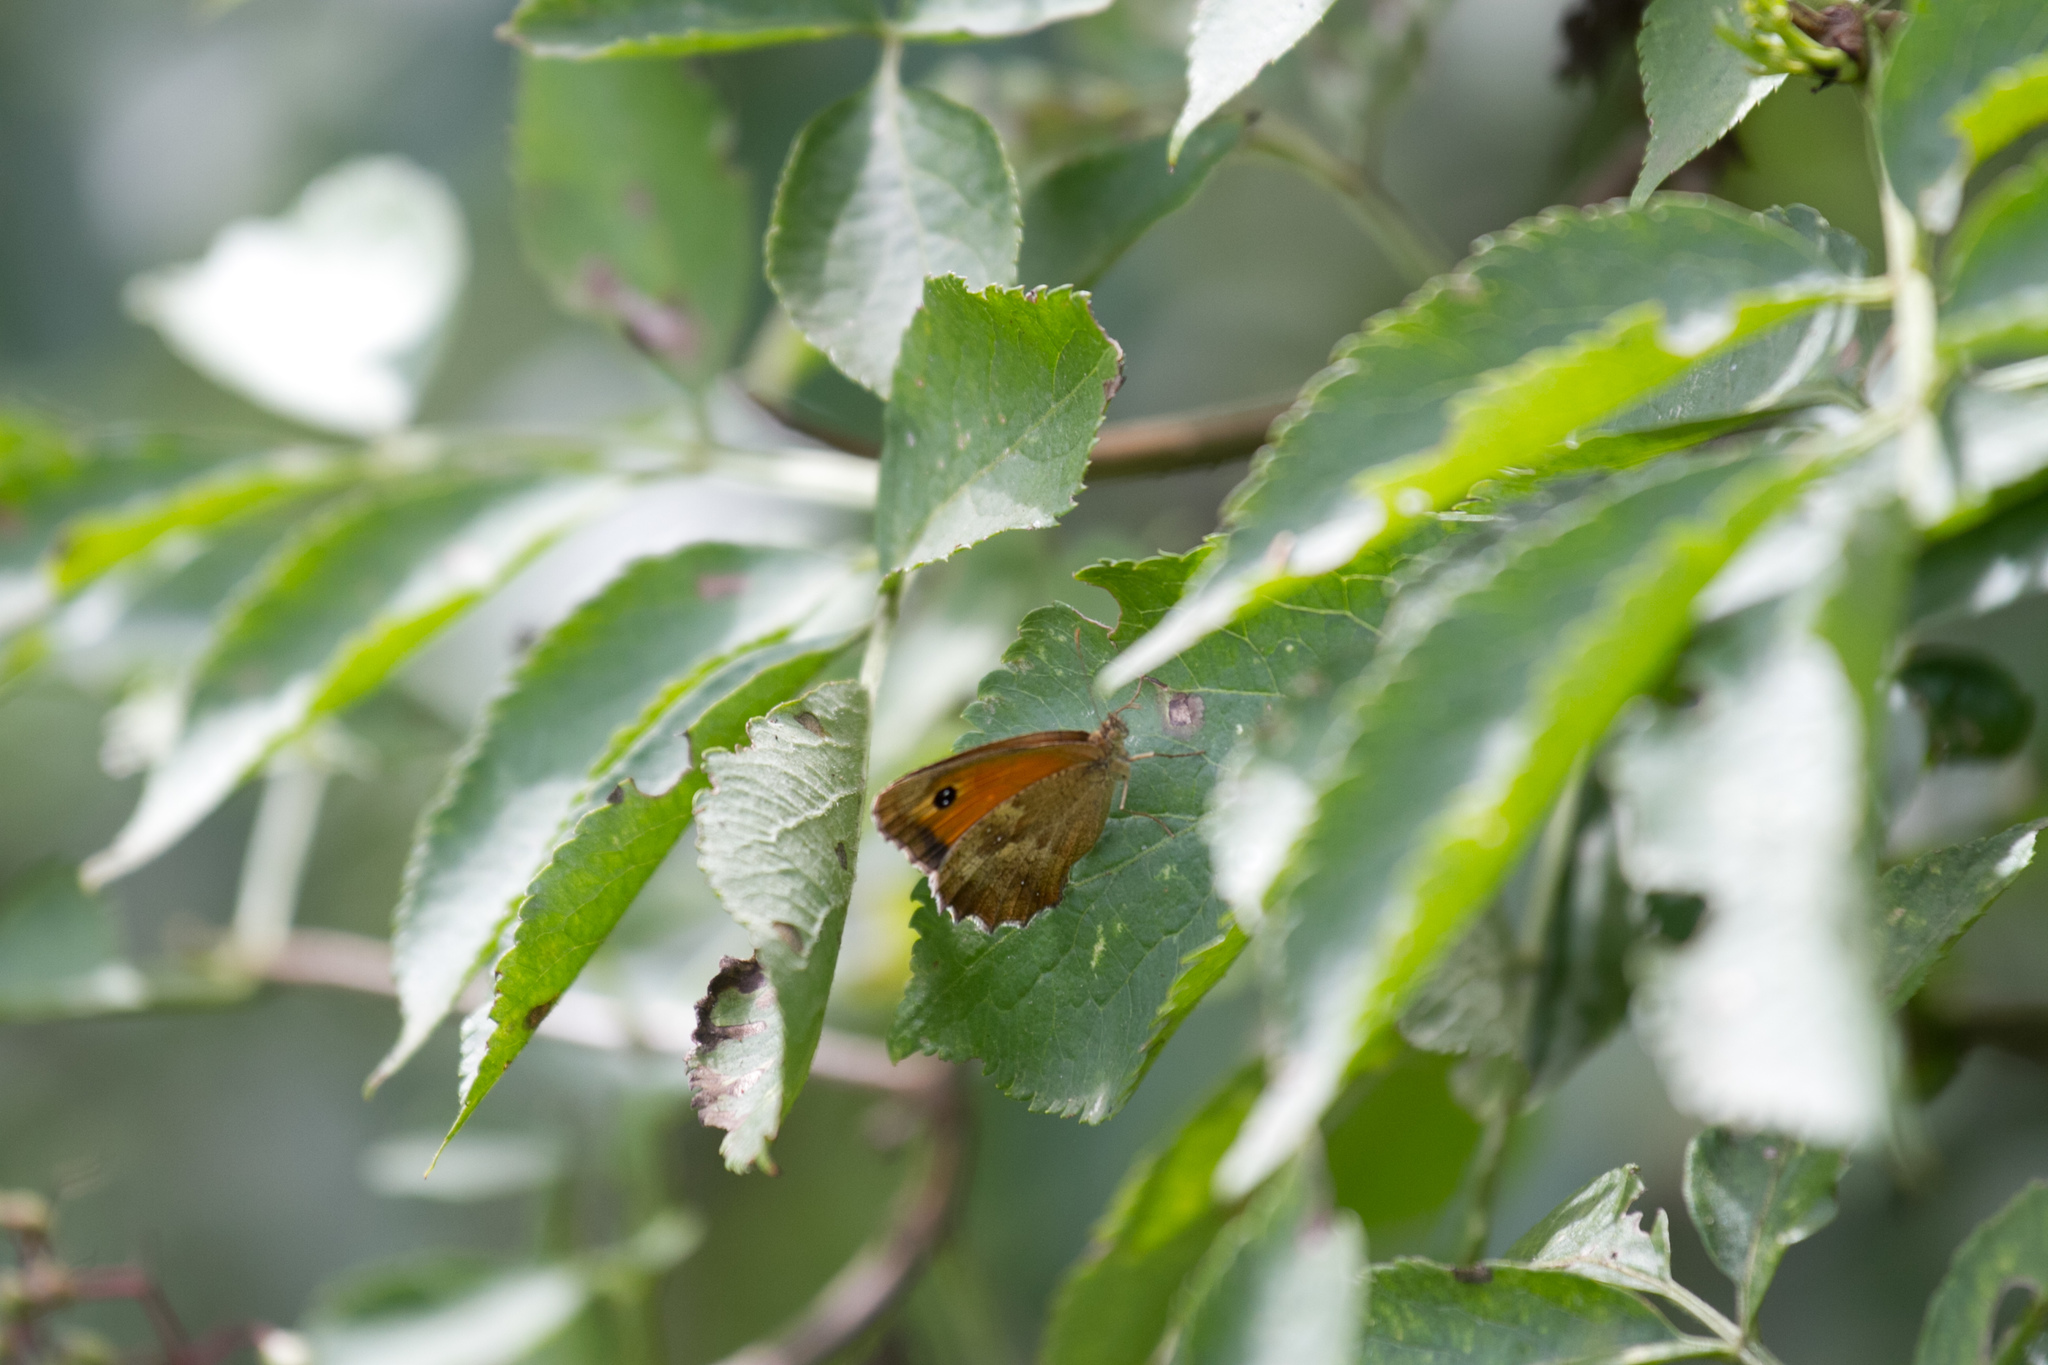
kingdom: Animalia
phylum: Arthropoda
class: Insecta
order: Lepidoptera
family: Nymphalidae
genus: Pyronia
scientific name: Pyronia tithonus
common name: Gatekeeper
